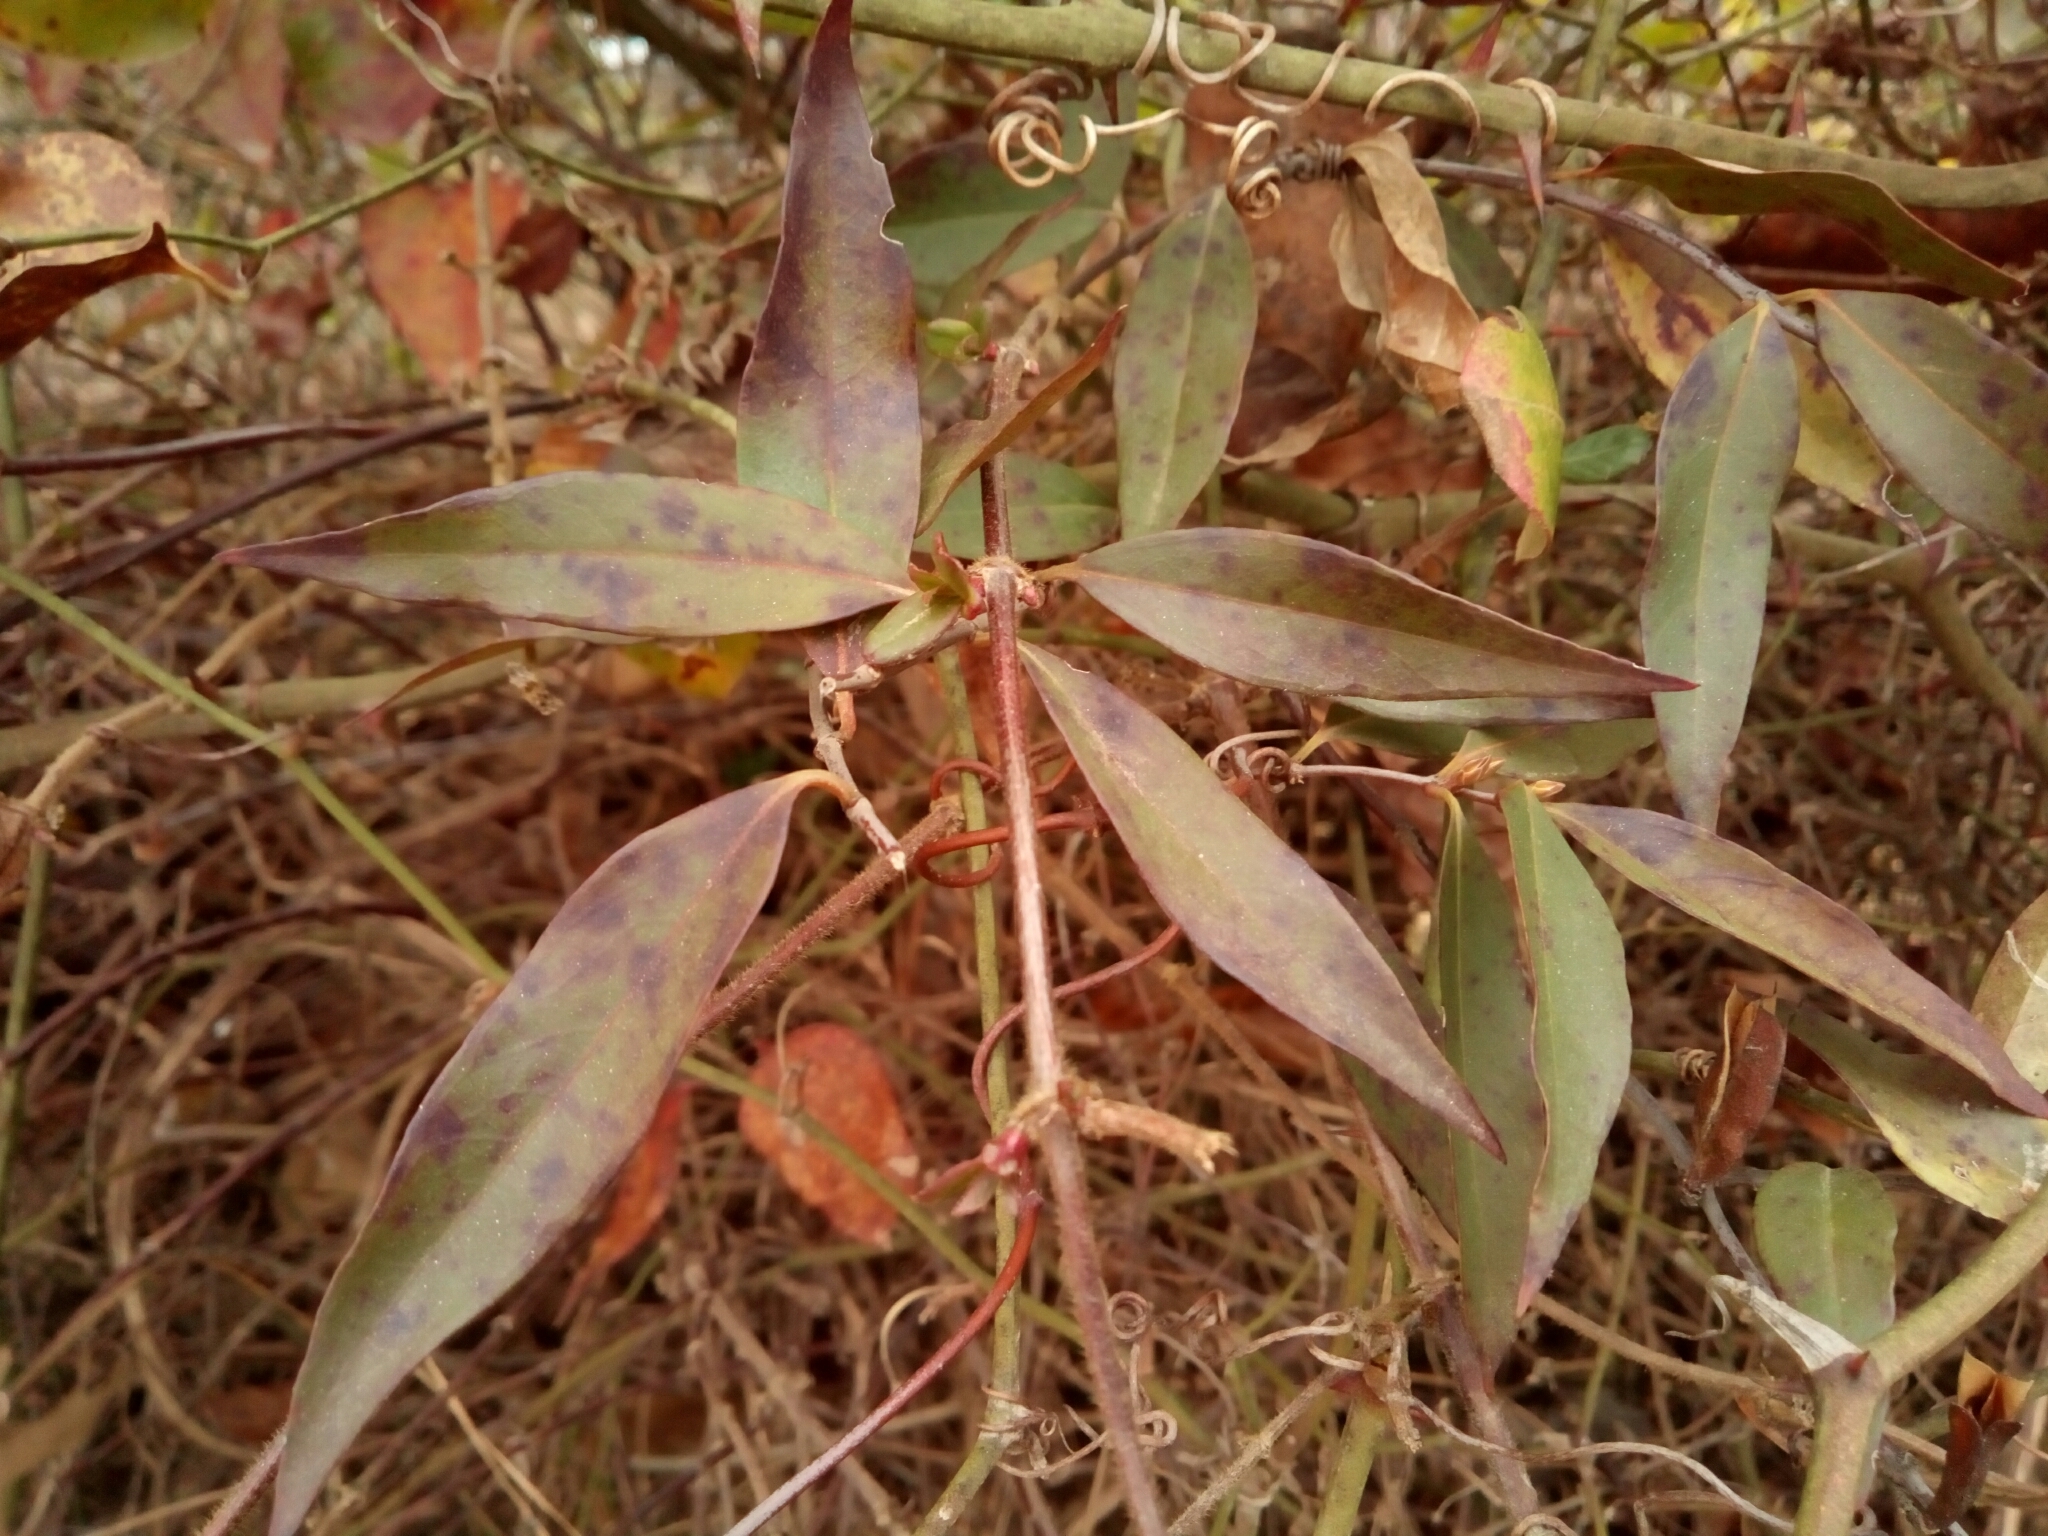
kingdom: Plantae
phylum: Tracheophyta
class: Magnoliopsida
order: Gentianales
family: Gelsemiaceae
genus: Gelsemium
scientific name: Gelsemium sempervirens
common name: Carolina-jasmine
